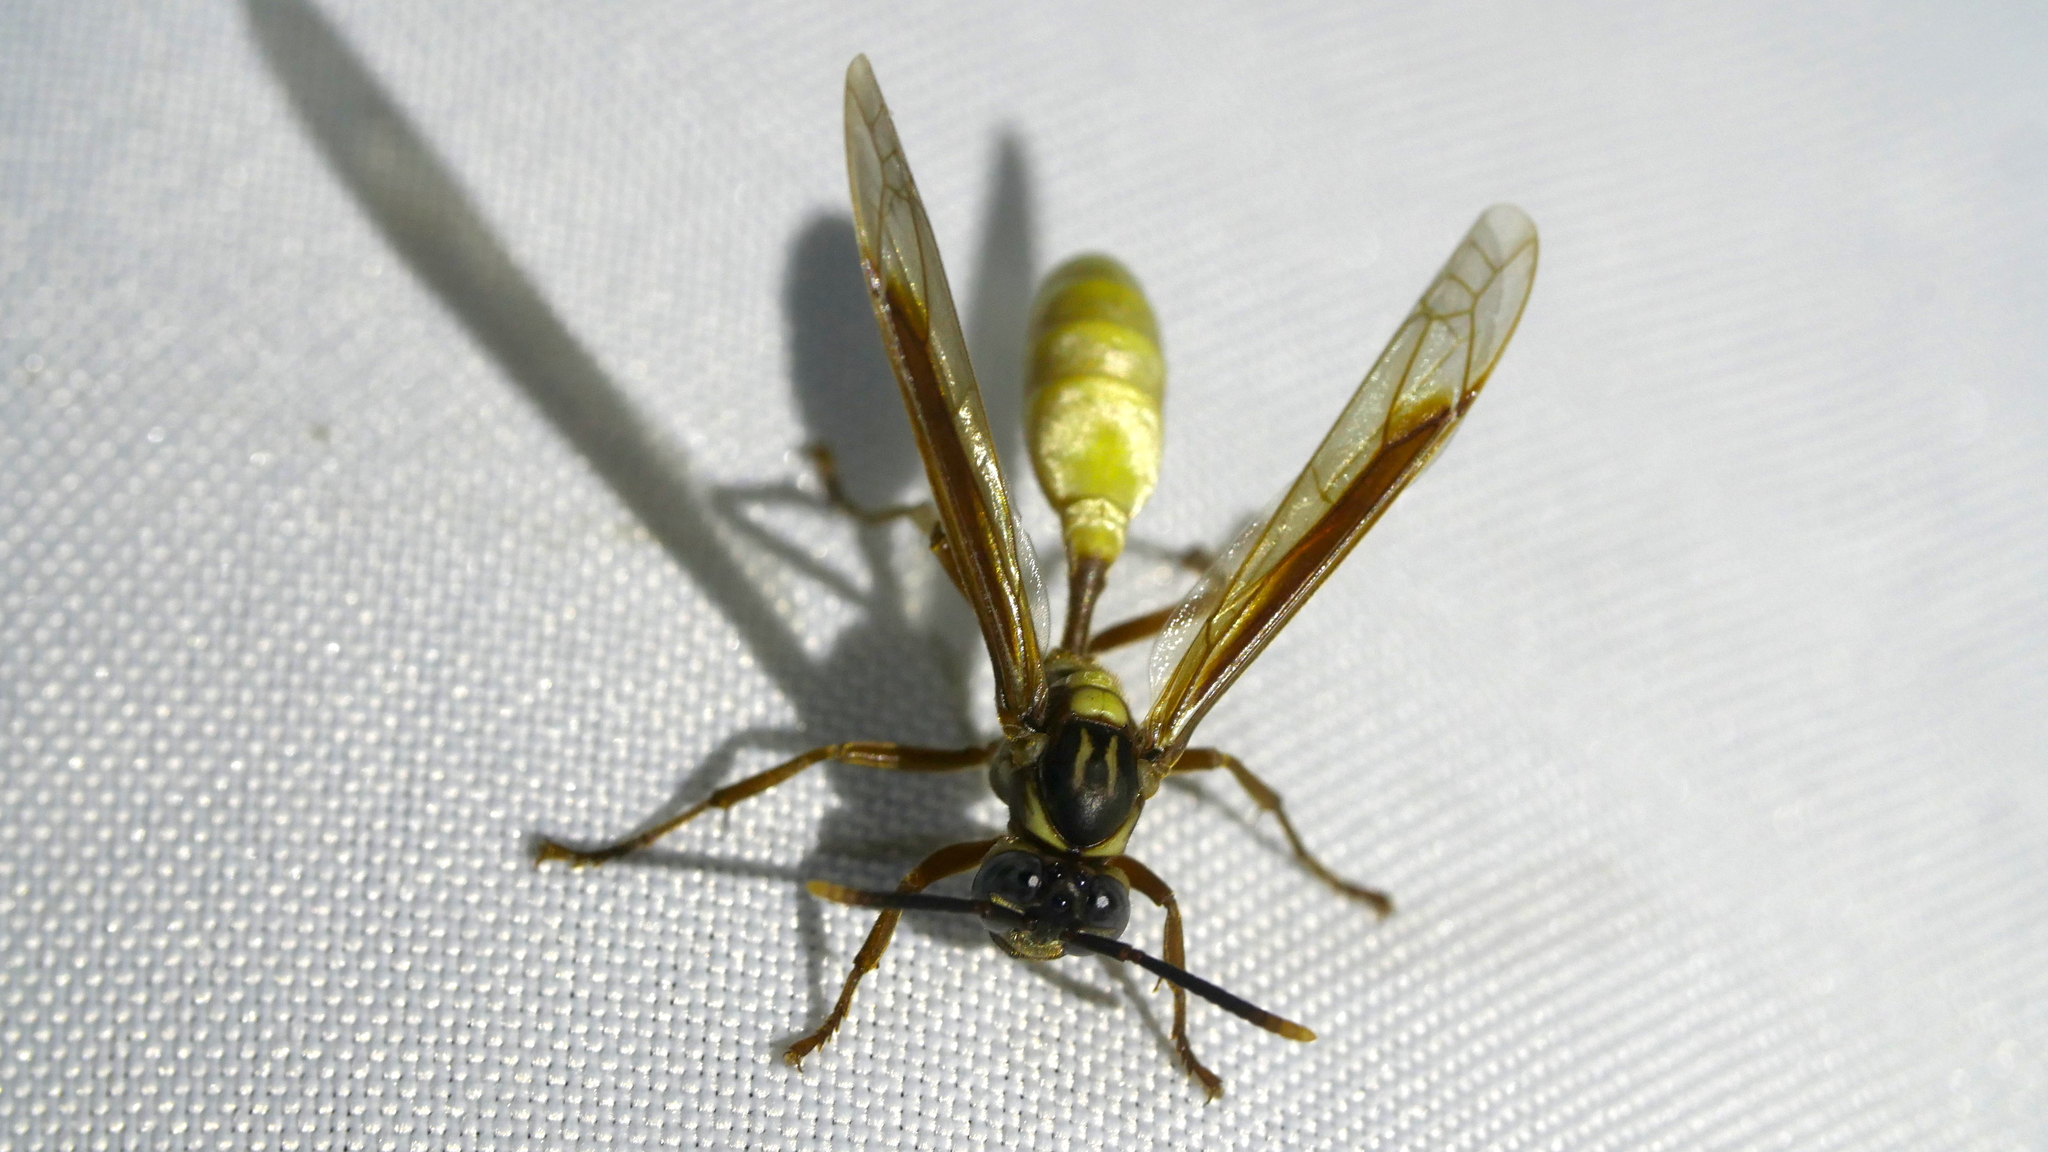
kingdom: Animalia
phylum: Arthropoda
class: Insecta
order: Hymenoptera
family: Vespidae
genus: Apoica
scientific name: Apoica pallens
